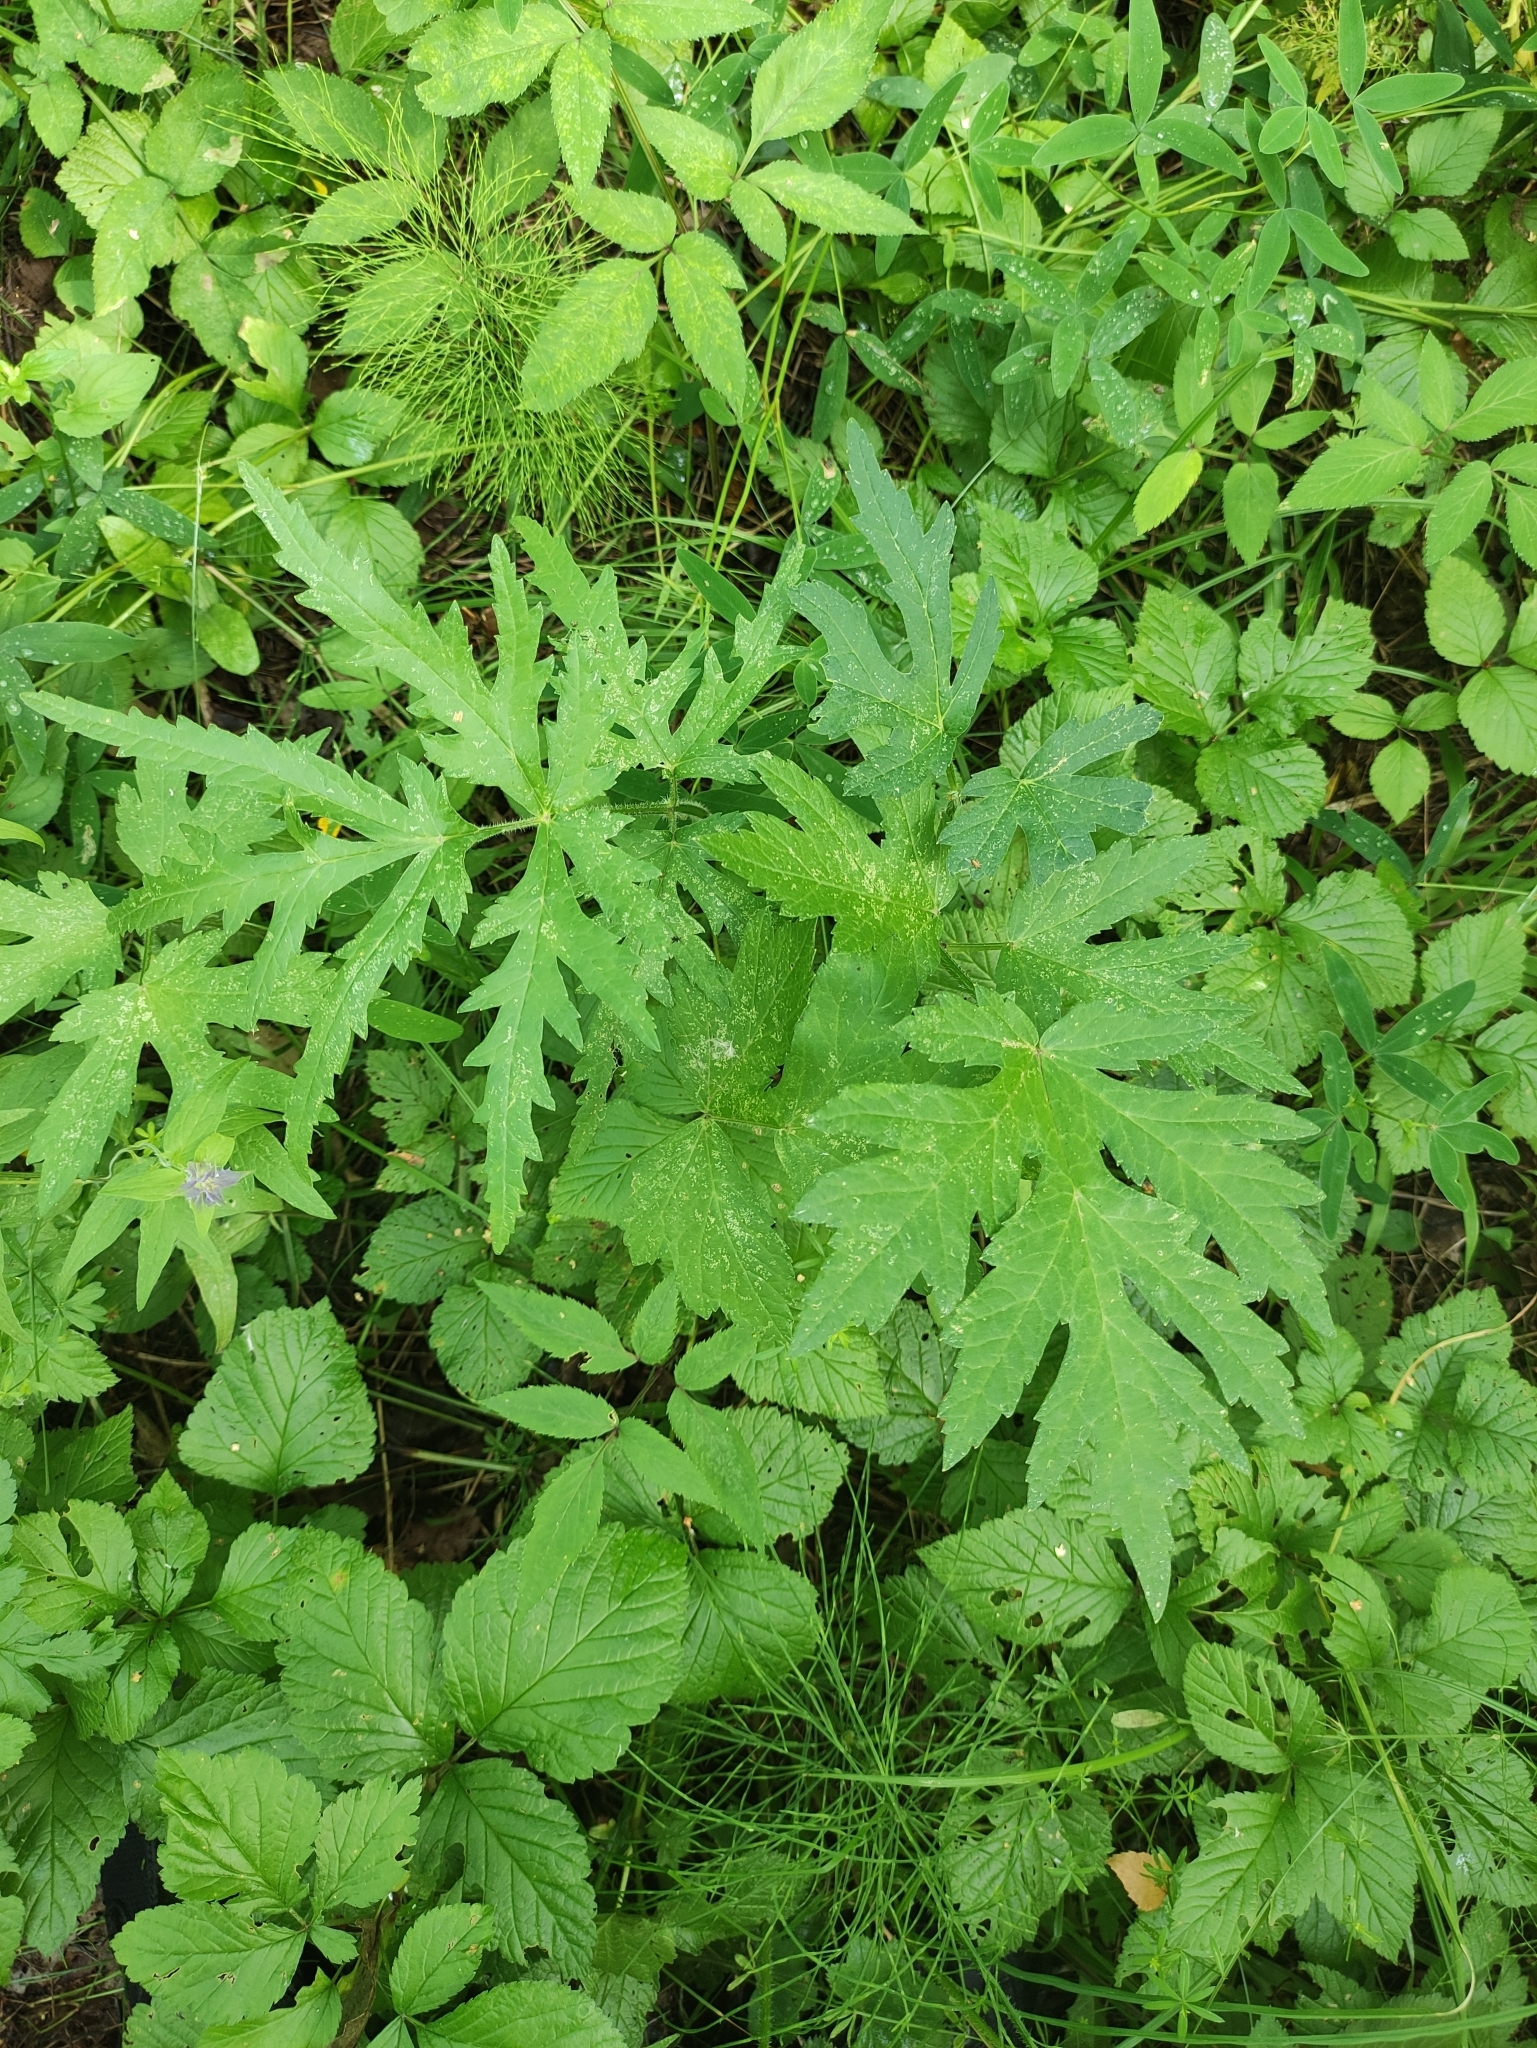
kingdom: Plantae
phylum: Tracheophyta
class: Magnoliopsida
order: Apiales
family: Apiaceae
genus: Heracleum
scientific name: Heracleum sphondylium
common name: Hogweed
